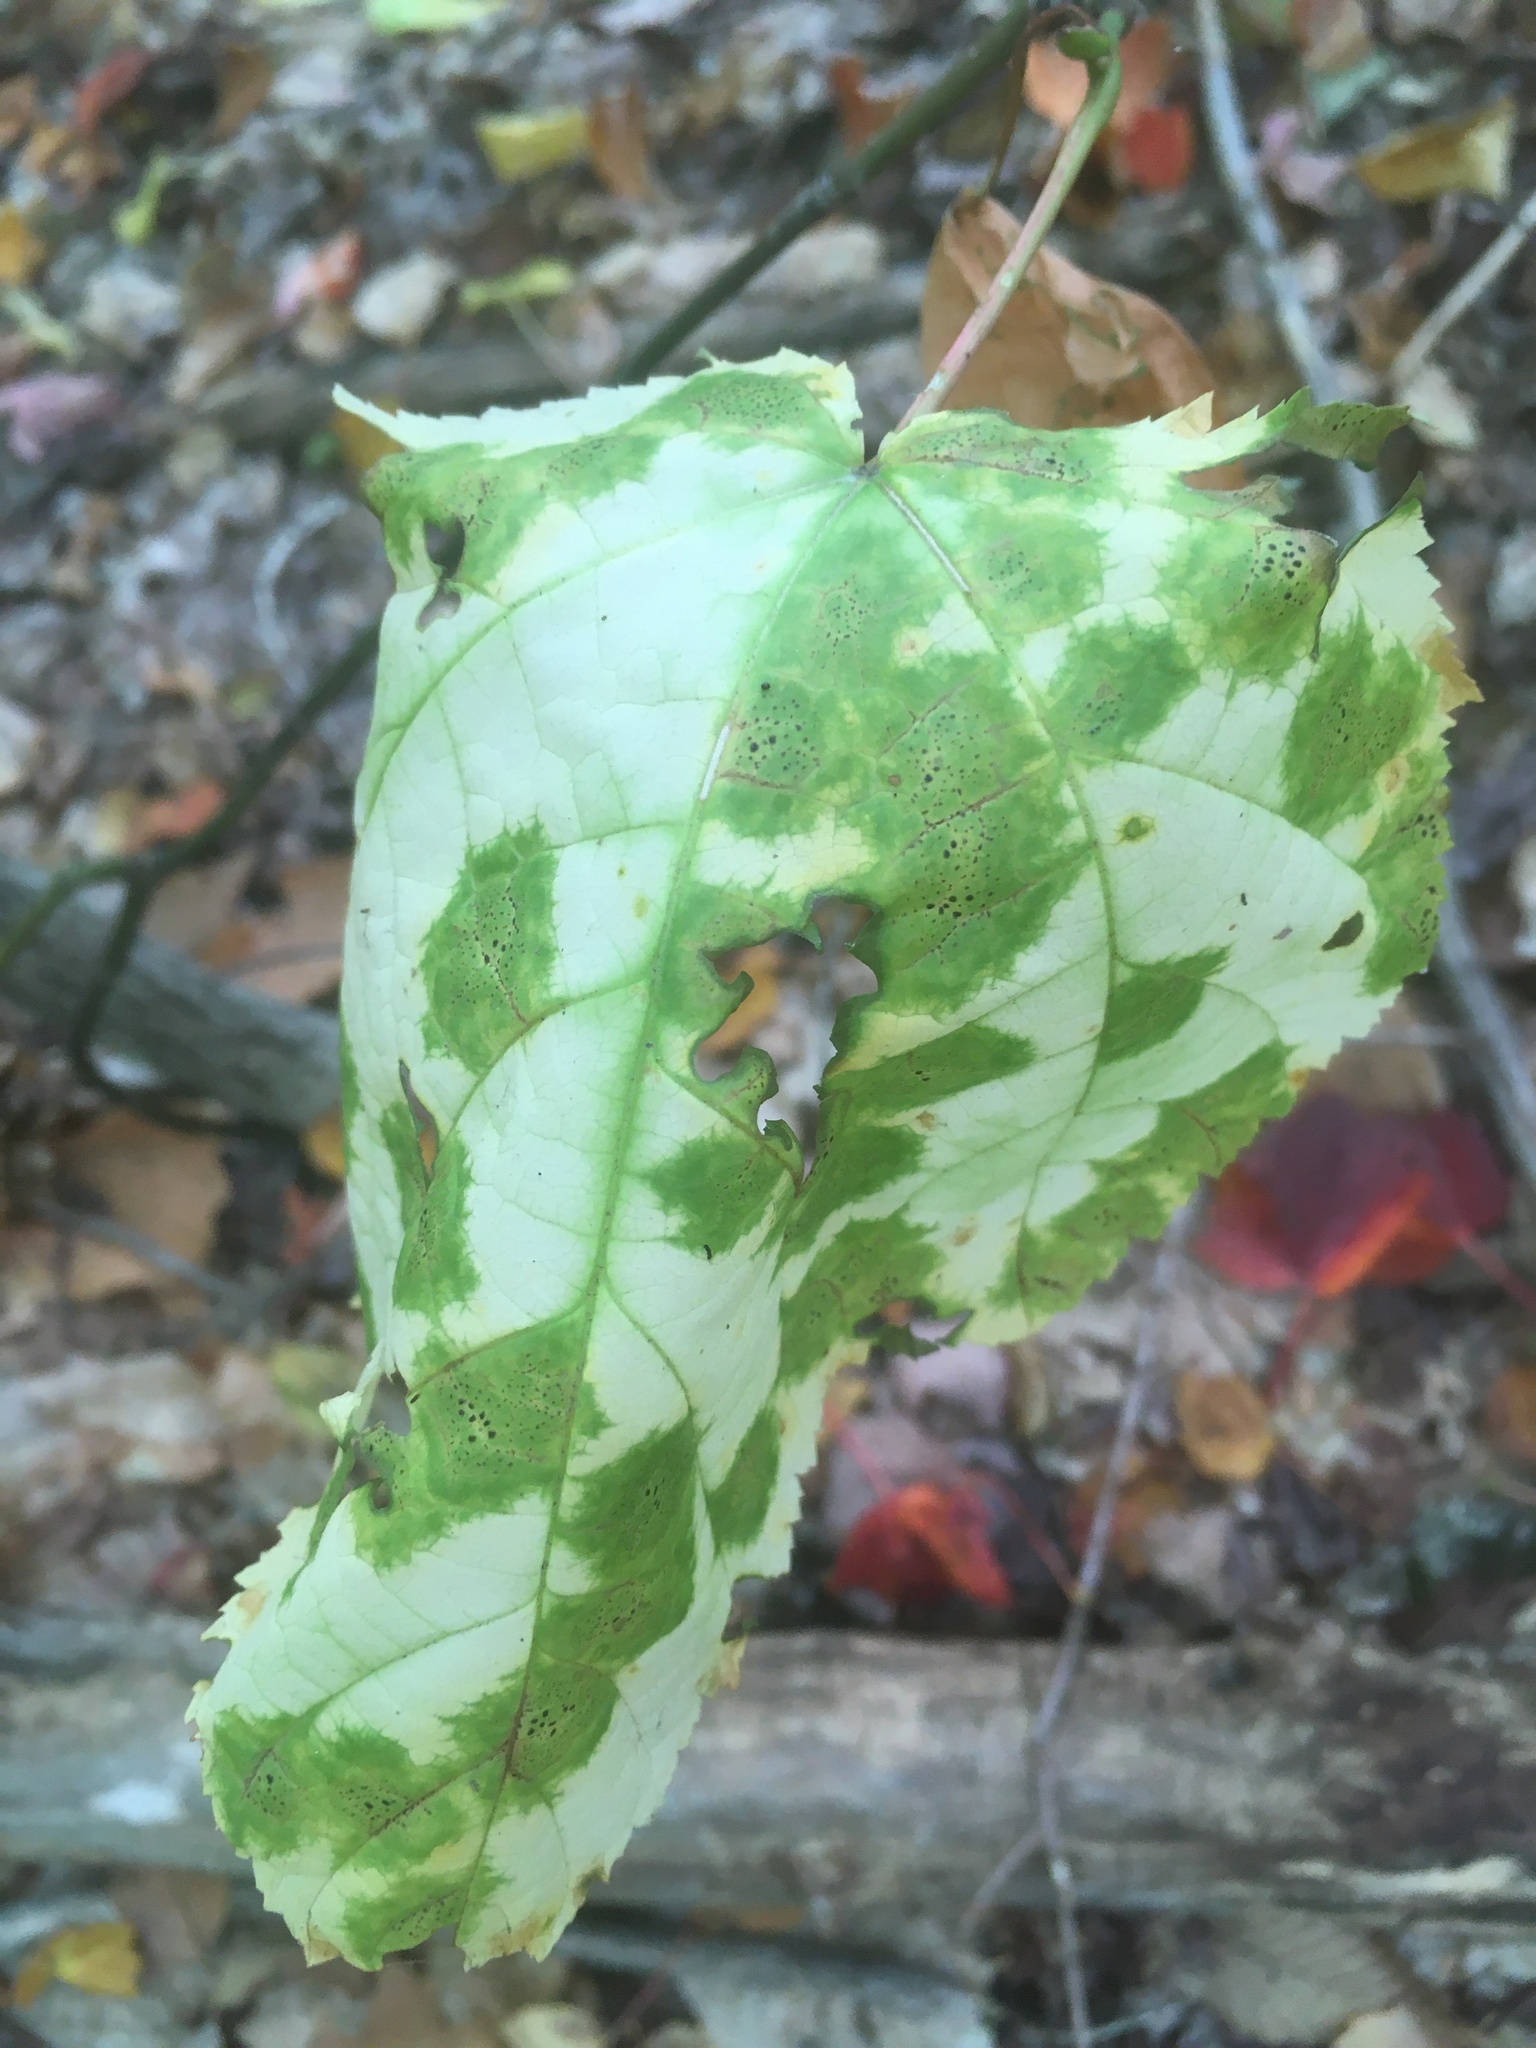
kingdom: Plantae
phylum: Tracheophyta
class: Magnoliopsida
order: Sapindales
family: Sapindaceae
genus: Acer
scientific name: Acer pensylvanicum
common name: Moosewood
